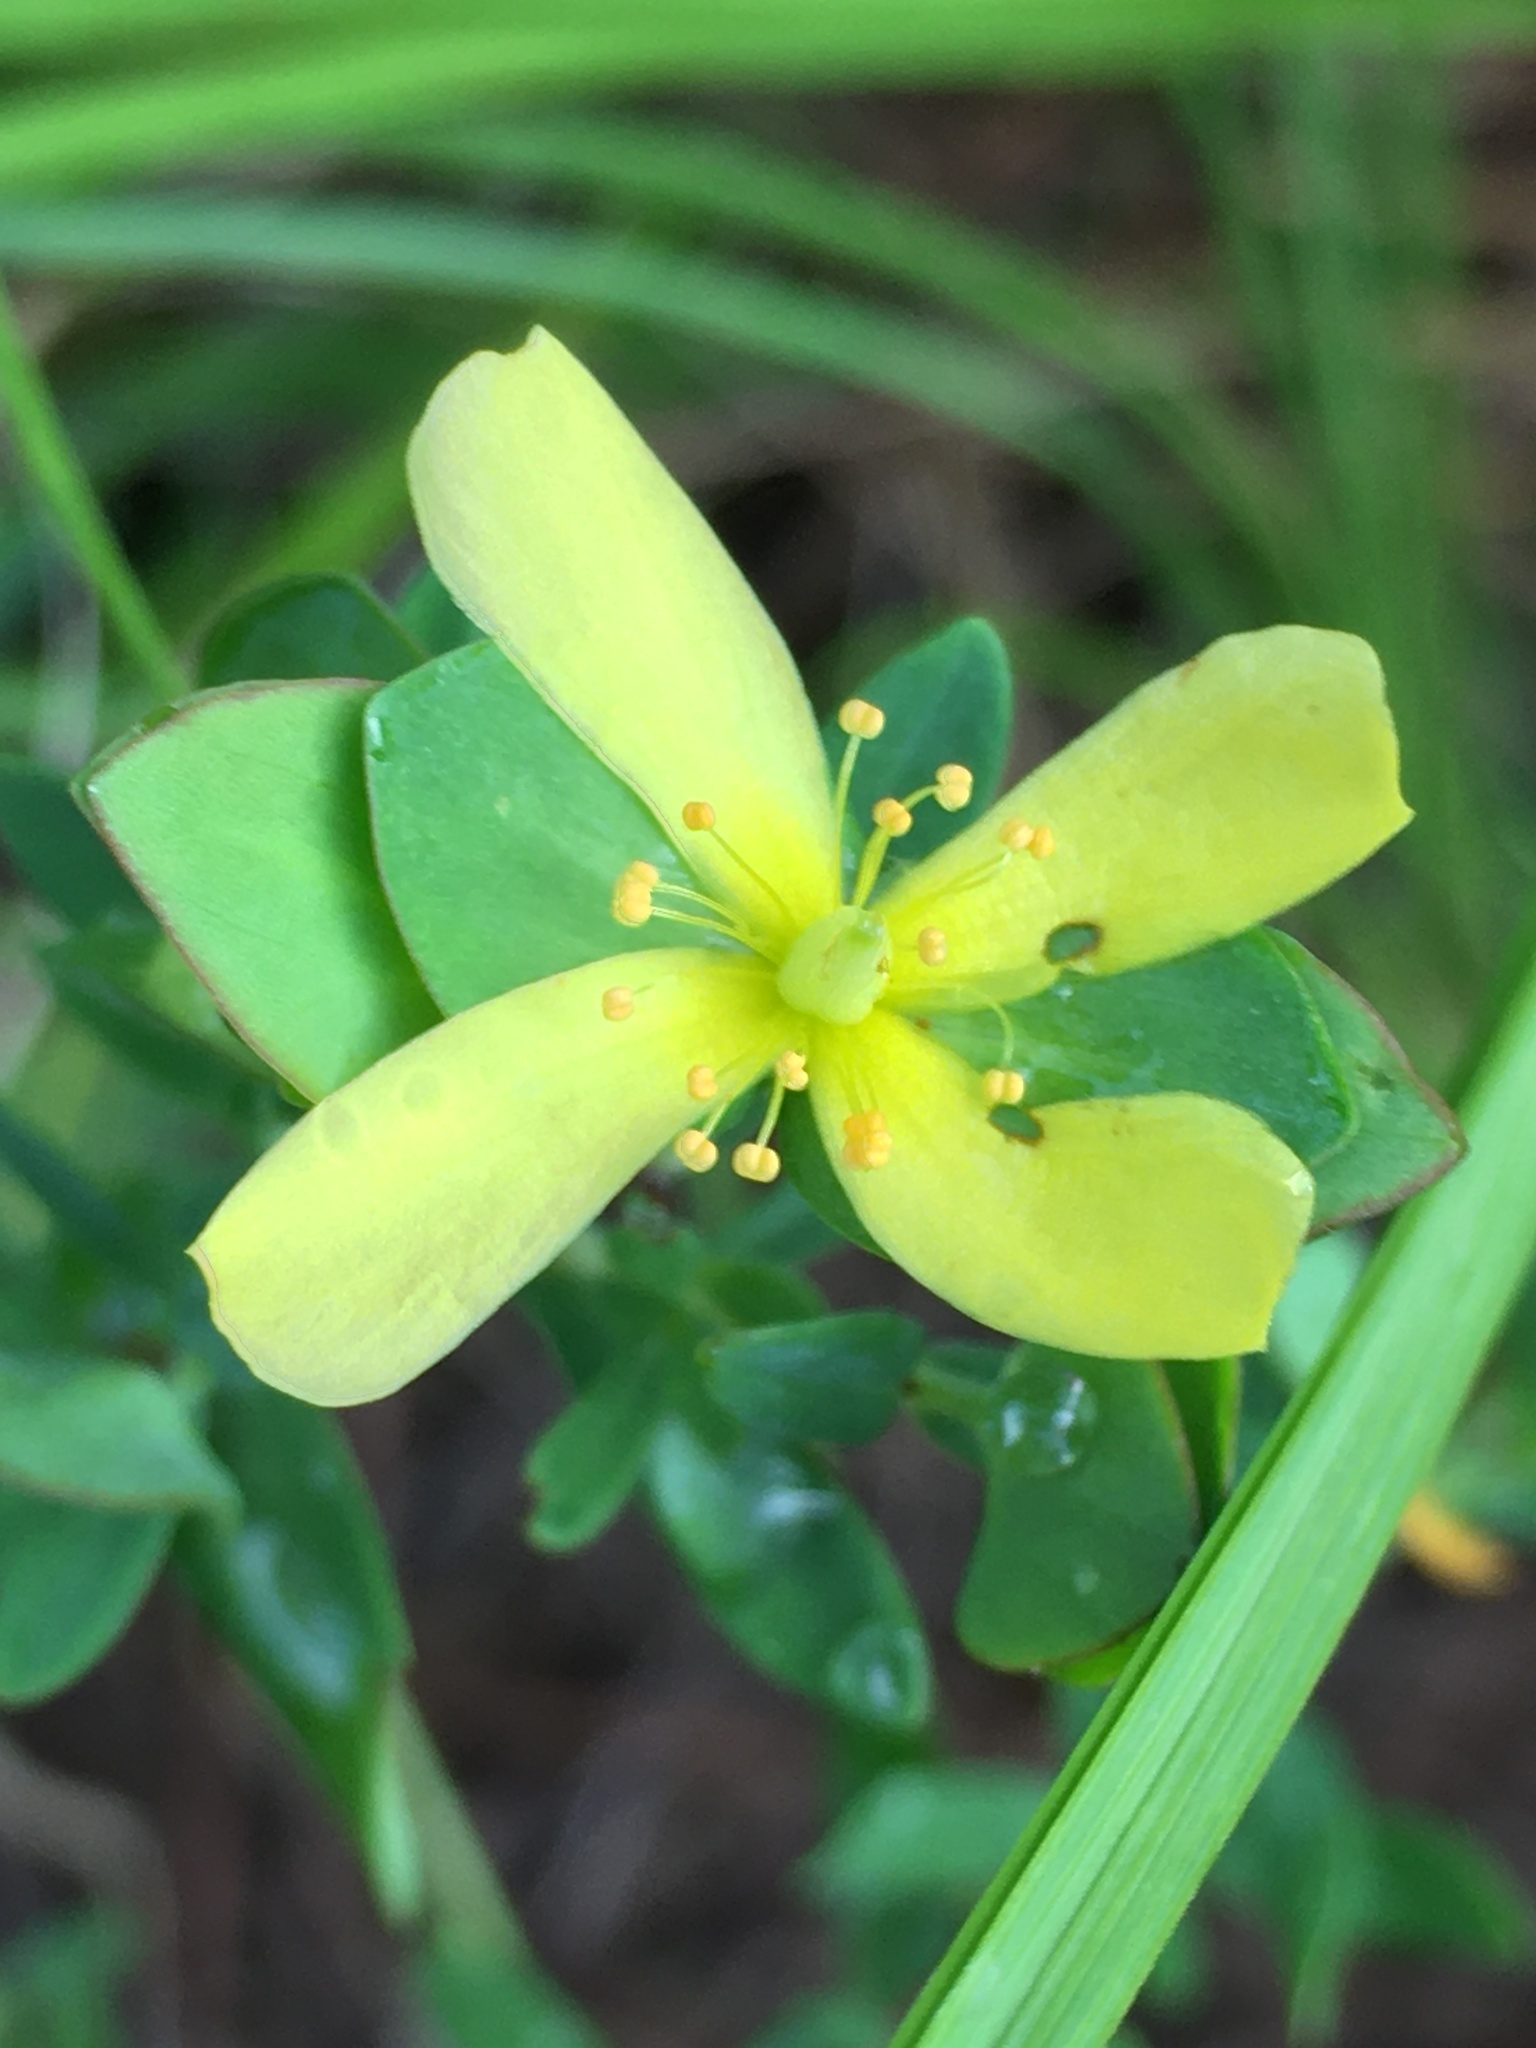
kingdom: Plantae
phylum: Tracheophyta
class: Magnoliopsida
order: Malpighiales
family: Hypericaceae
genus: Hypericum
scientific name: Hypericum hypericoides
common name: St. andrew's cross
